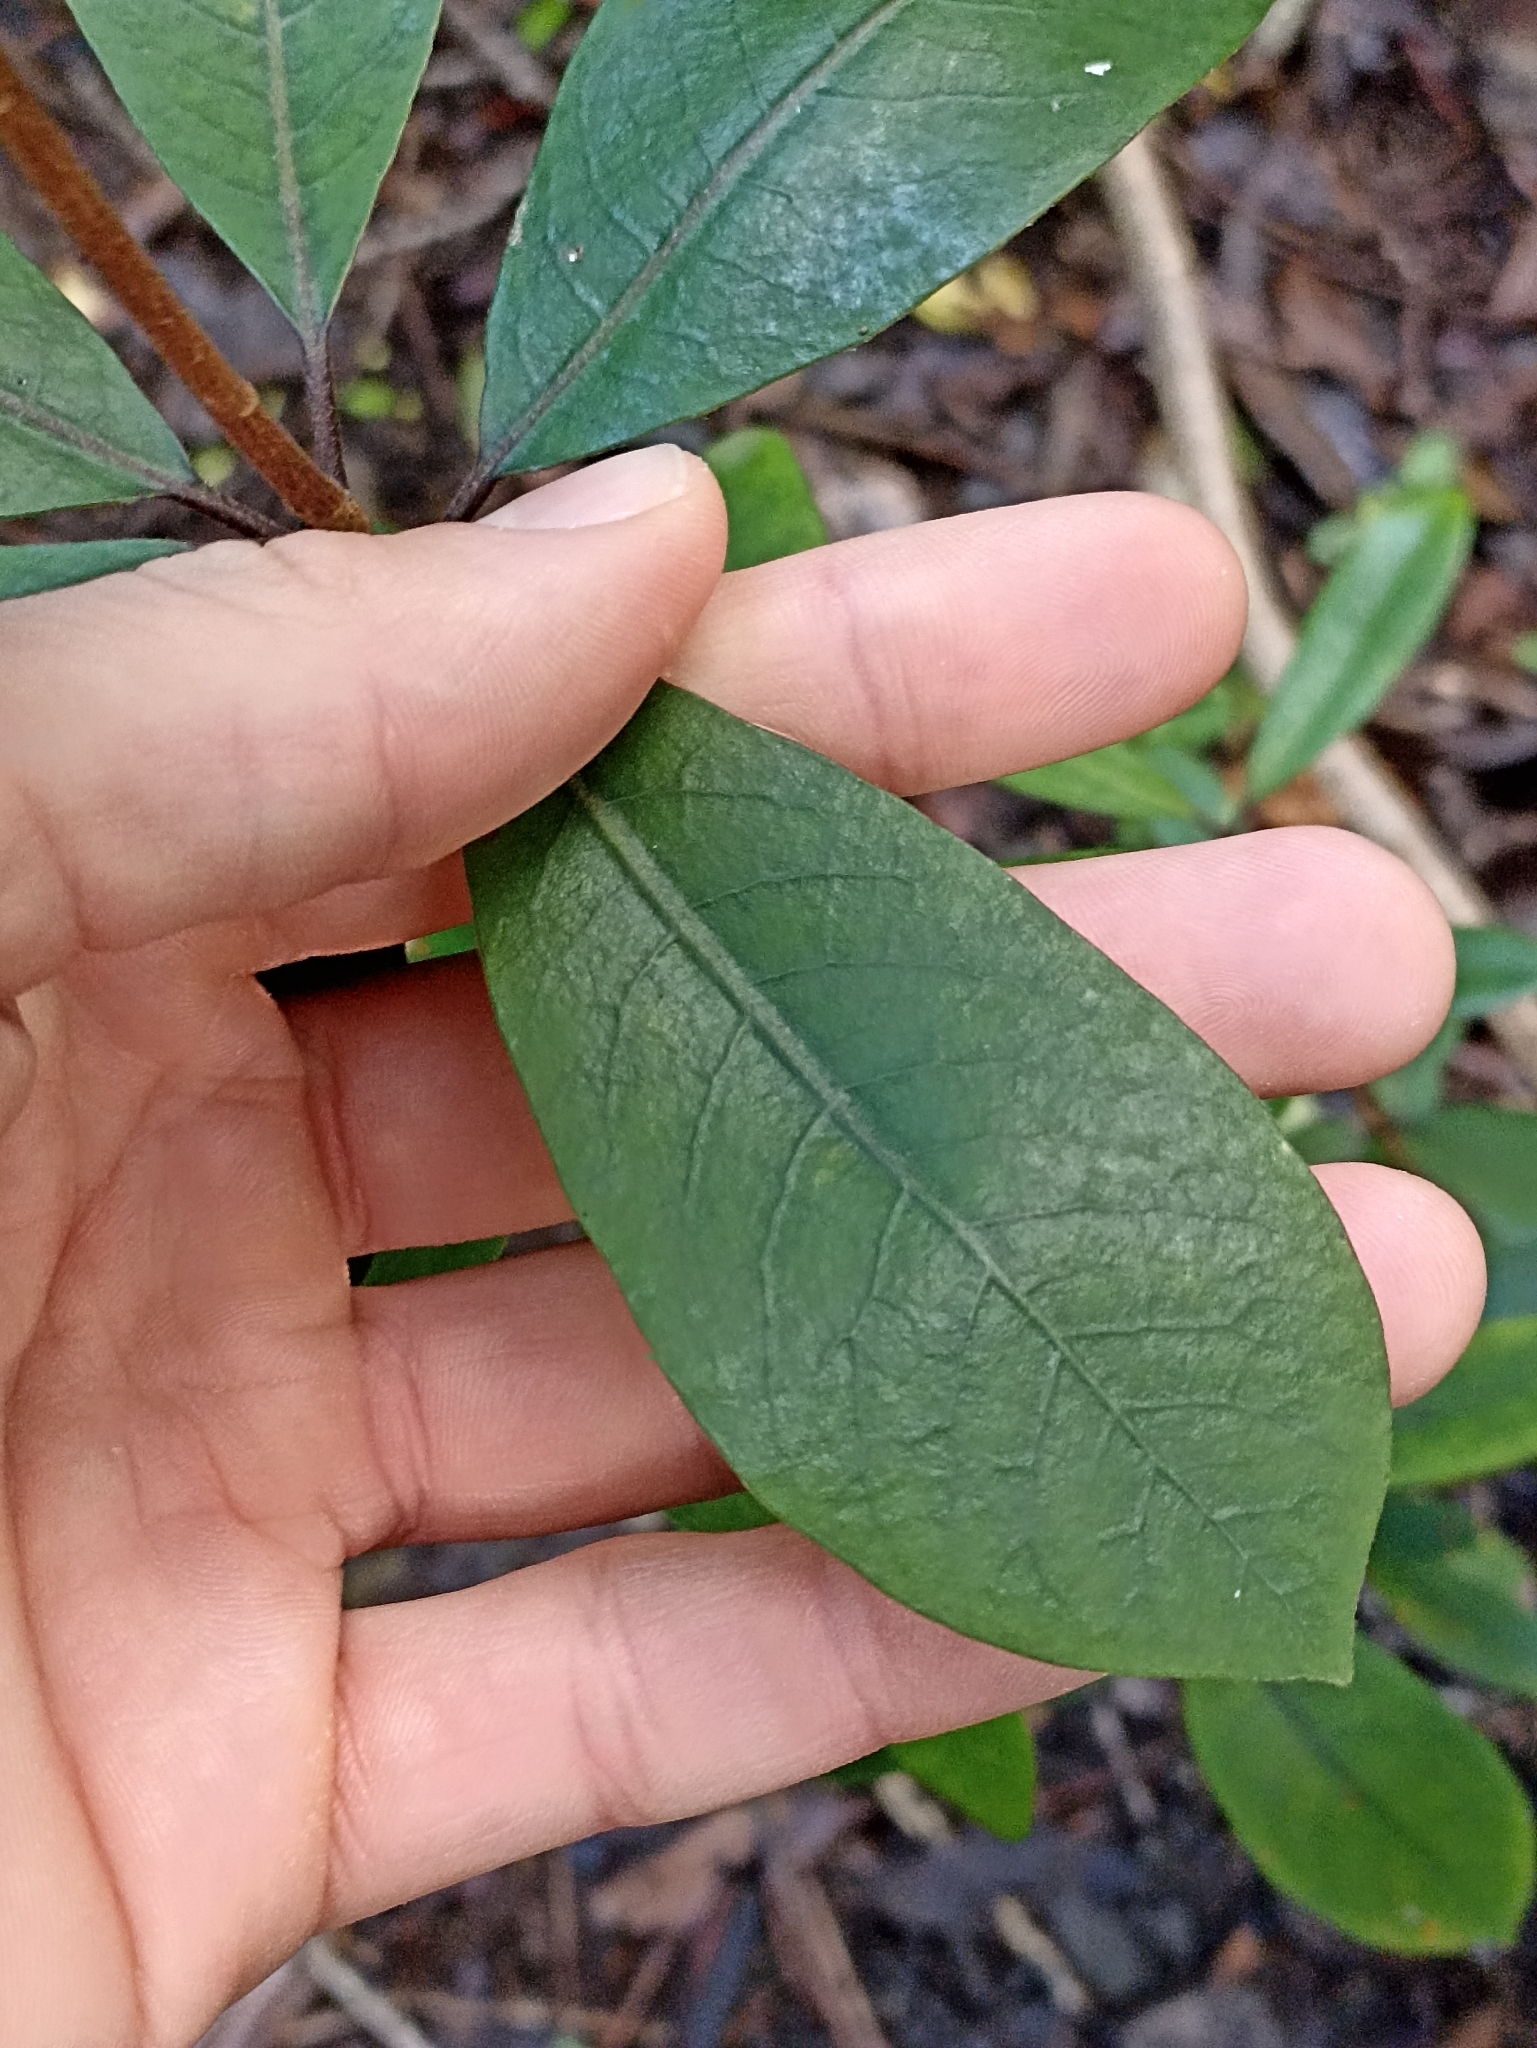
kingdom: Plantae
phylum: Tracheophyta
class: Magnoliopsida
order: Apiales
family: Pittosporaceae
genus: Pittosporum
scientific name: Pittosporum umbellatum
